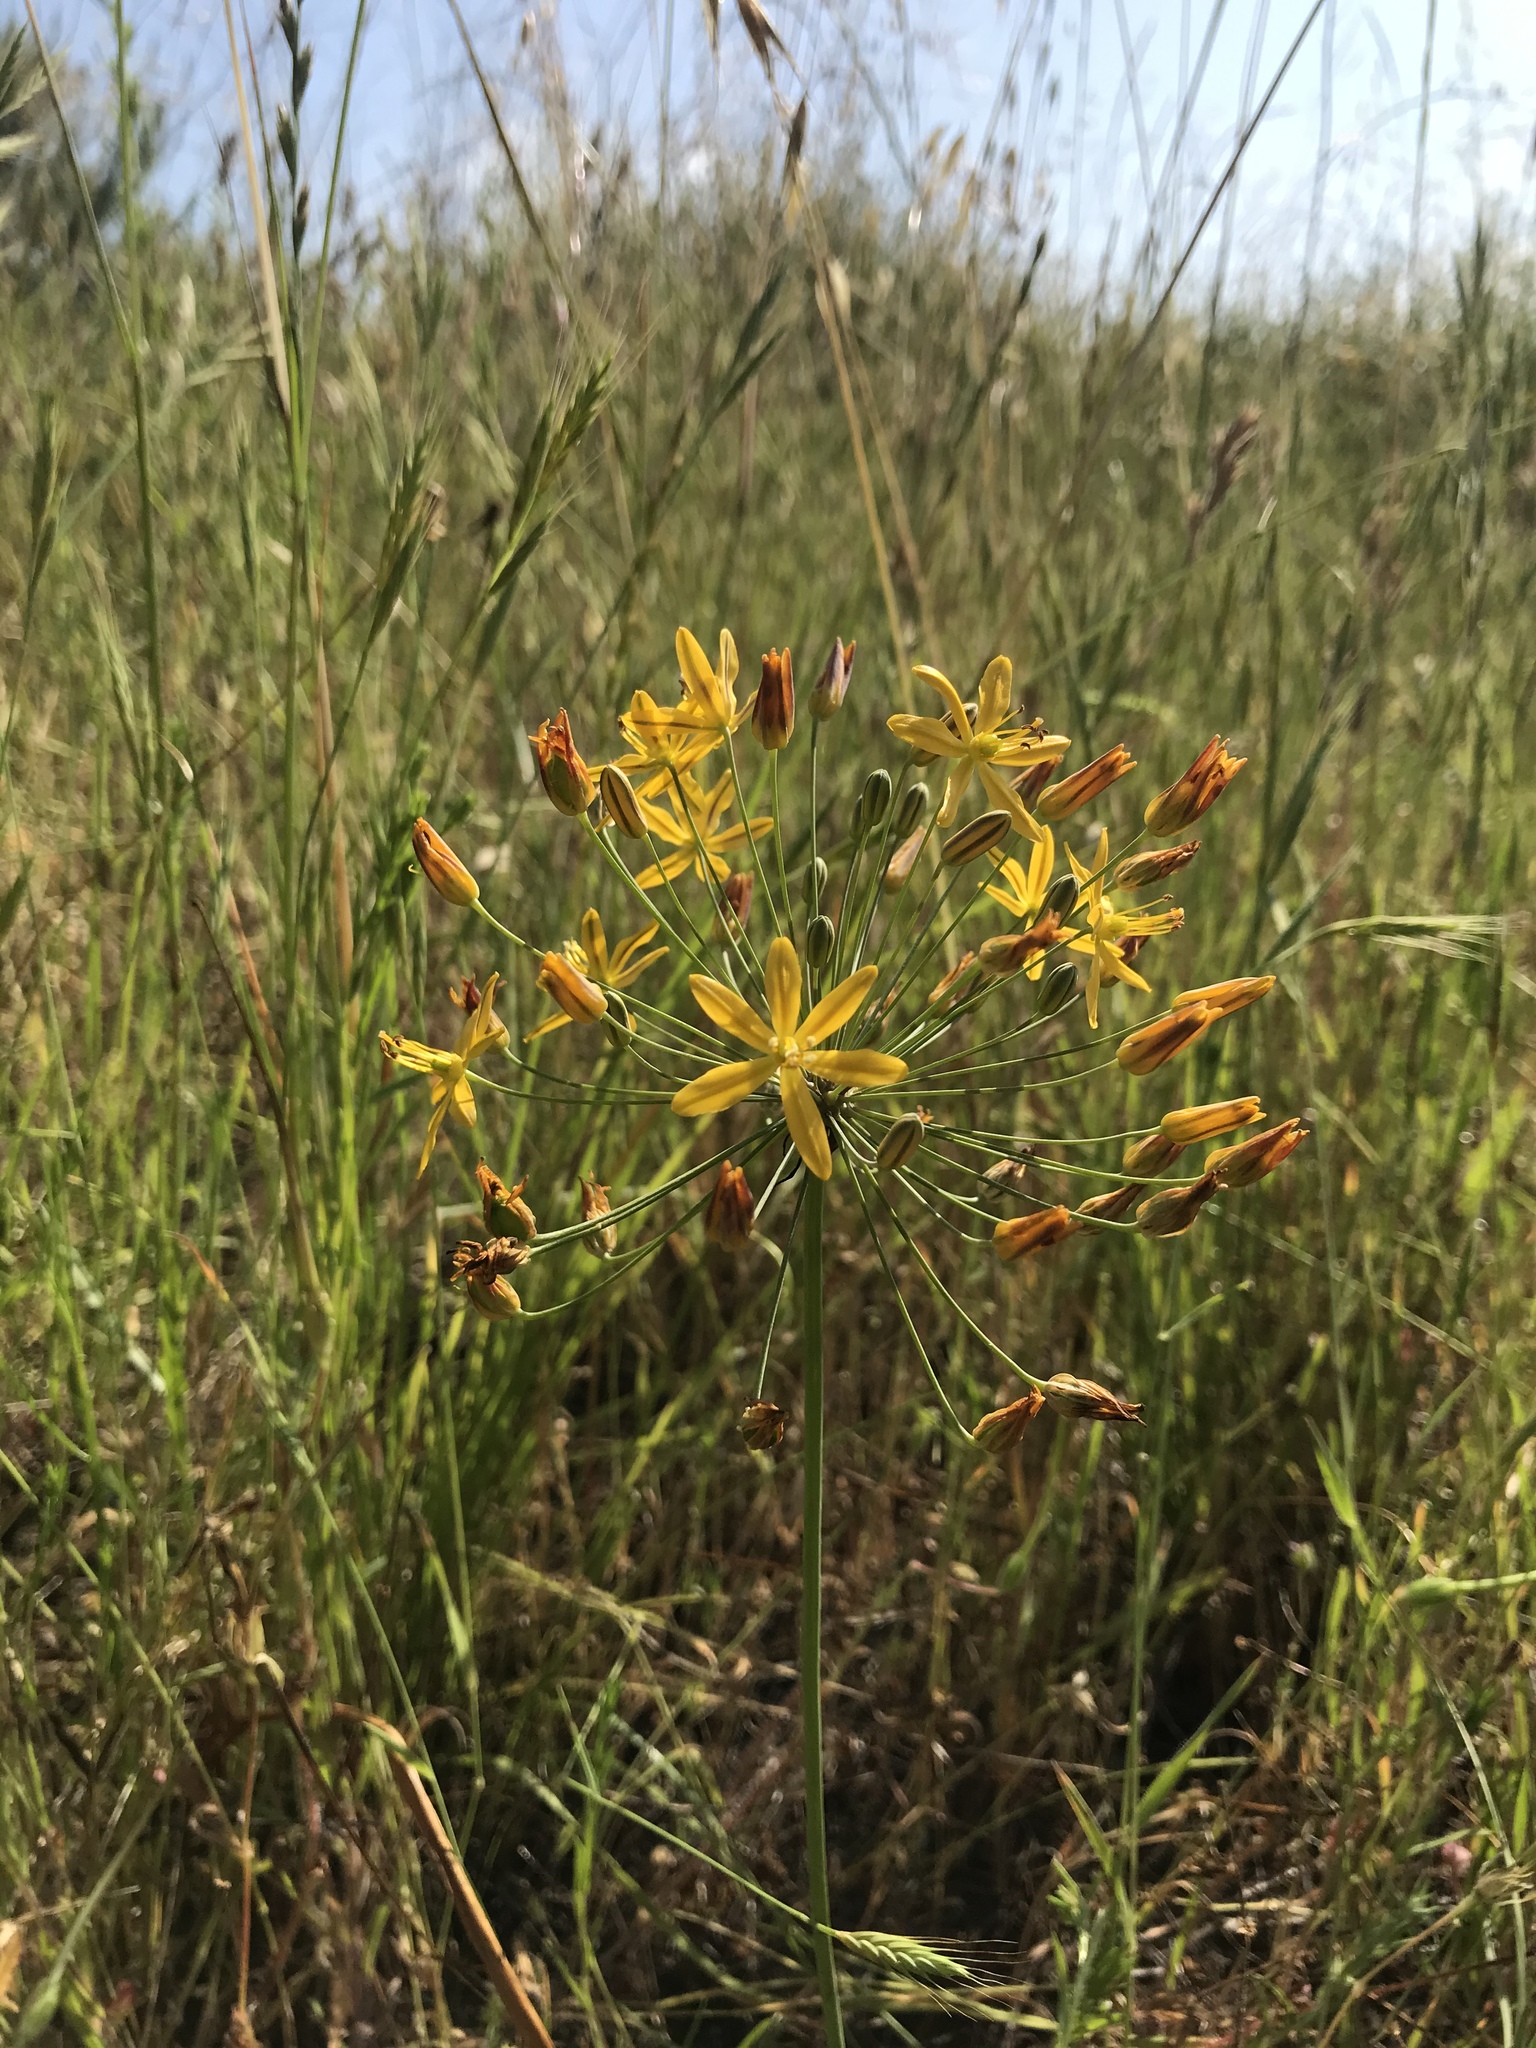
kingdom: Plantae
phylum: Tracheophyta
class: Liliopsida
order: Asparagales
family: Asparagaceae
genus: Bloomeria
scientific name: Bloomeria crocea
